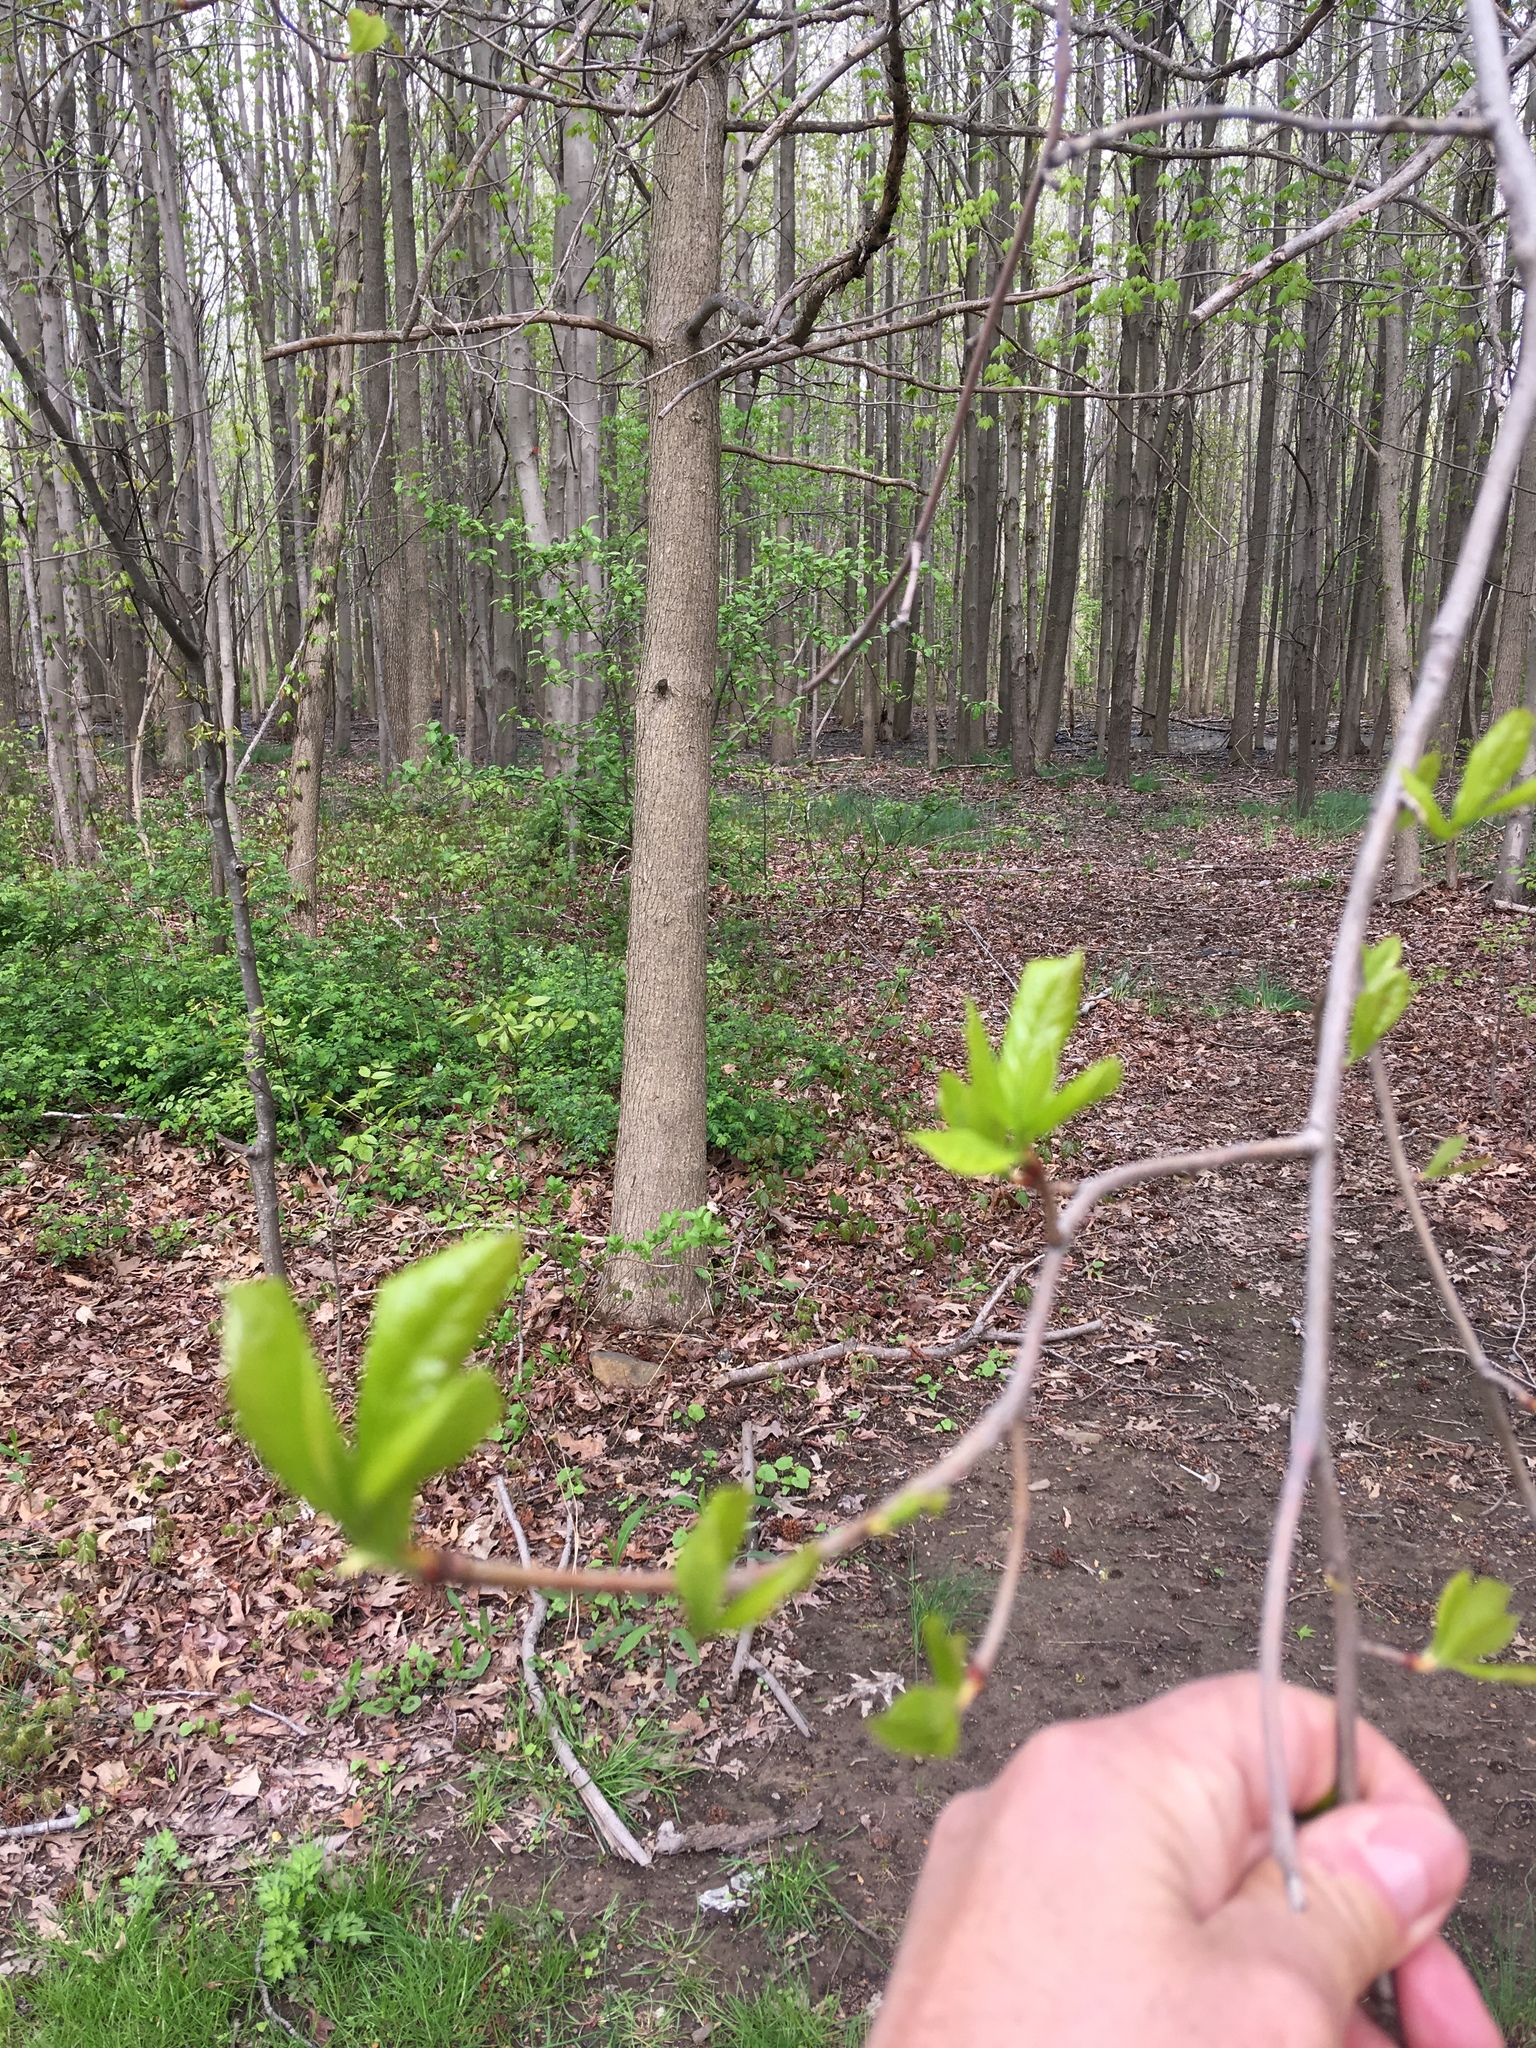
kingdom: Plantae
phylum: Tracheophyta
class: Magnoliopsida
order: Cornales
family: Nyssaceae
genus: Nyssa
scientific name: Nyssa sylvatica
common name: Black tupelo
